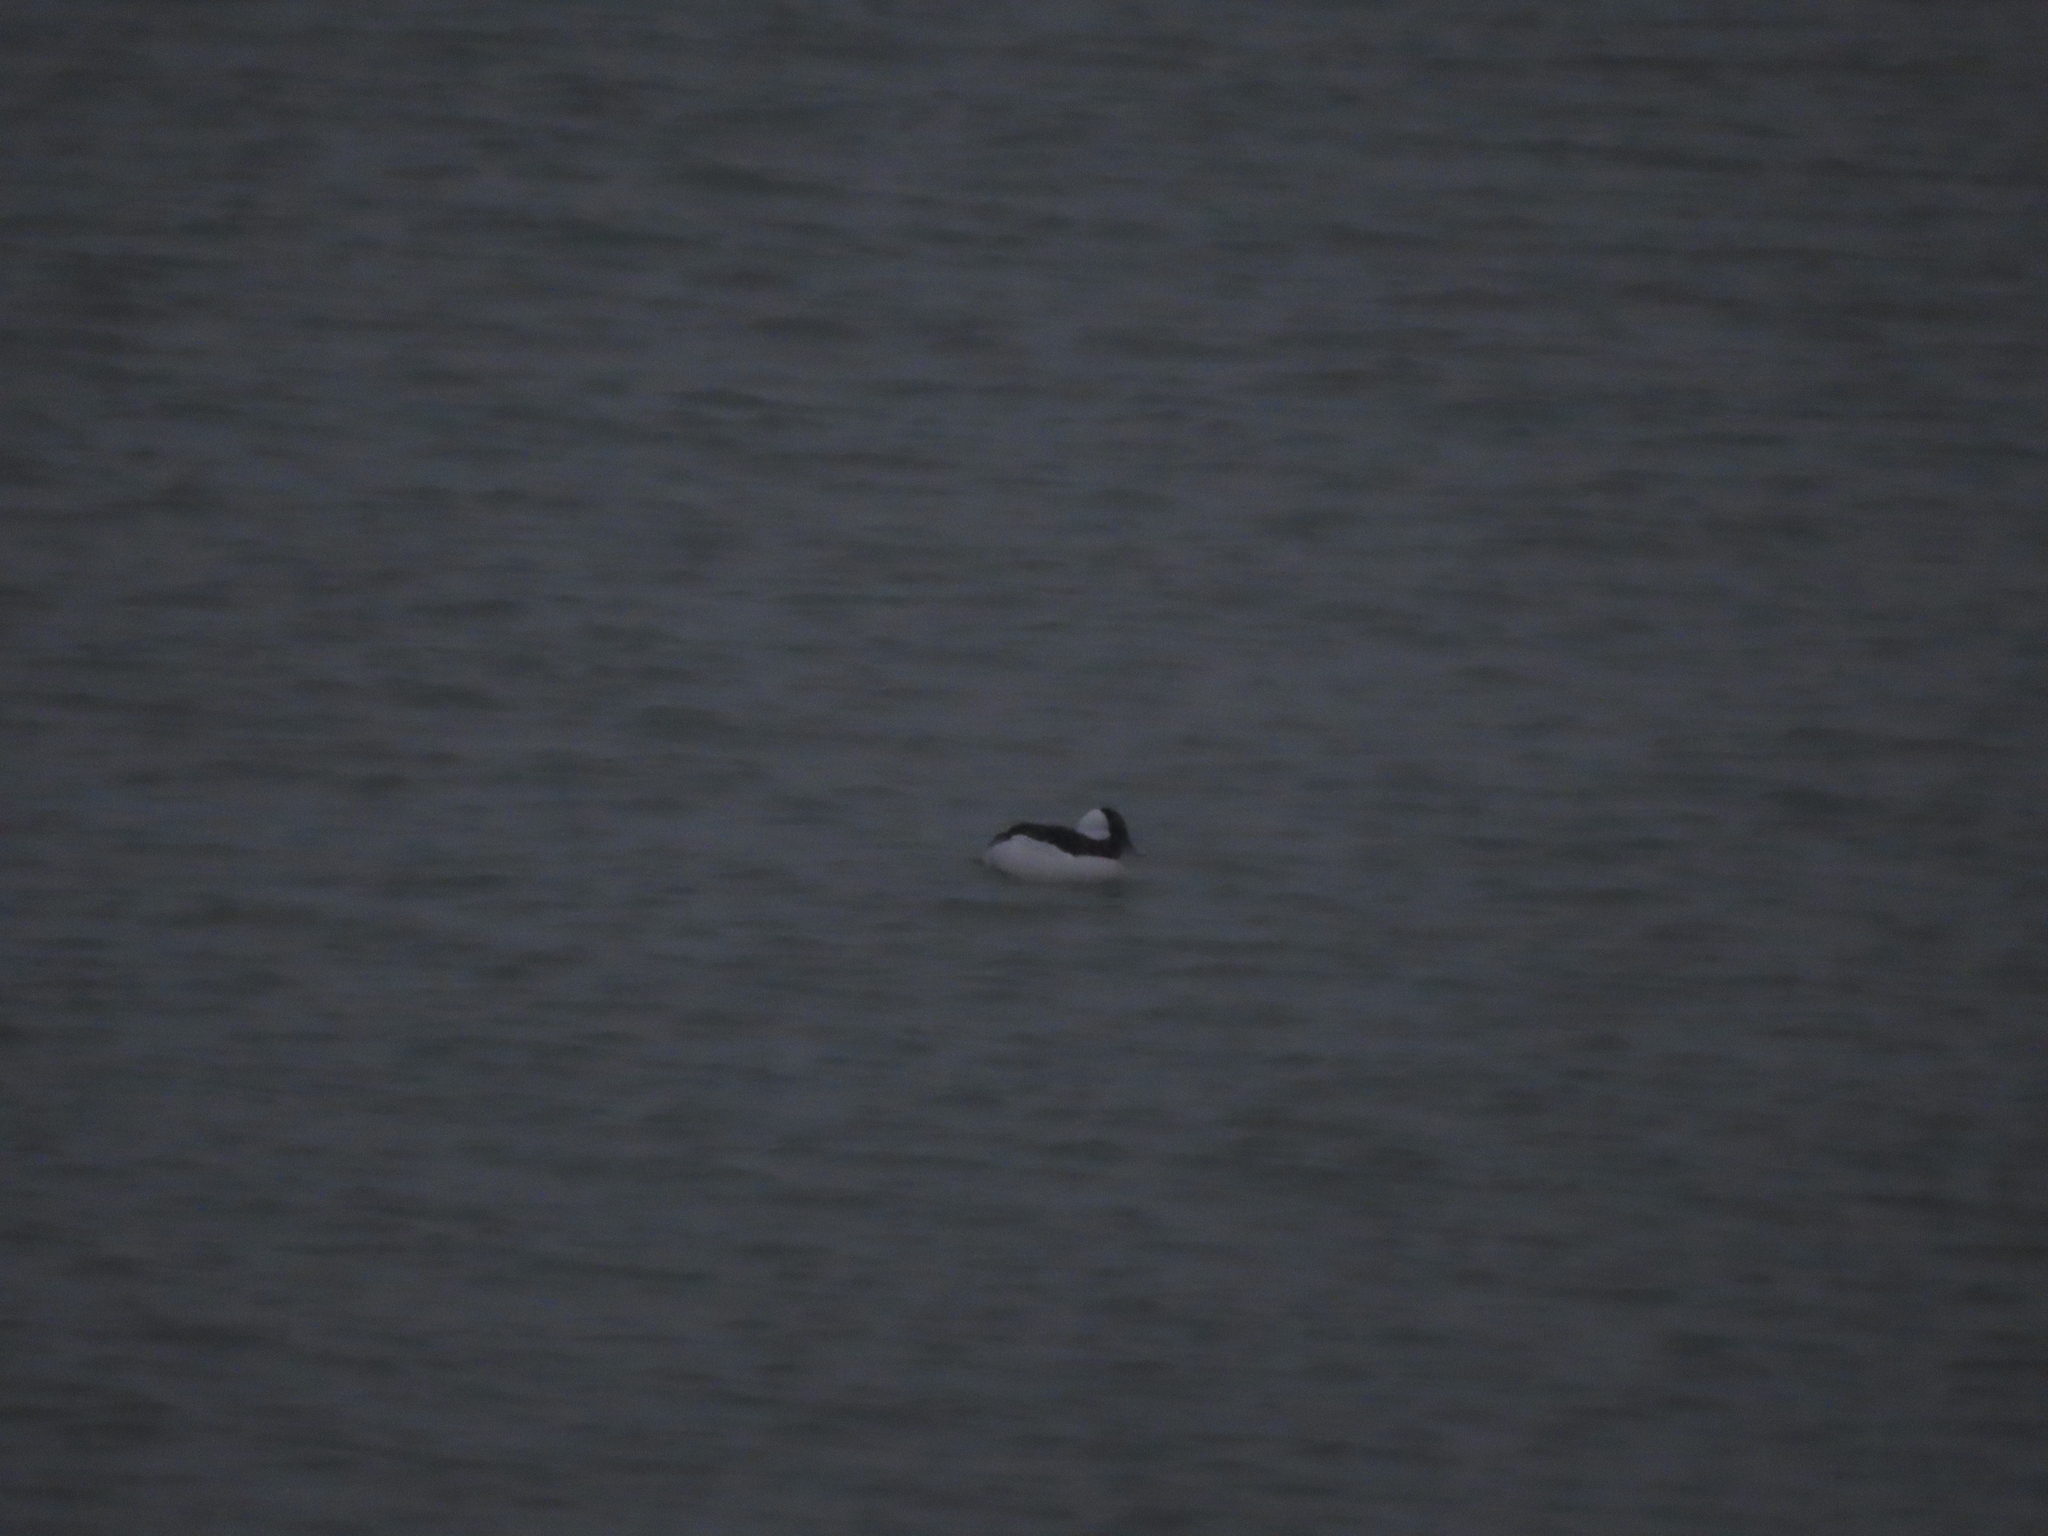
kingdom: Animalia
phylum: Chordata
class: Aves
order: Anseriformes
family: Anatidae
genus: Bucephala
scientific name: Bucephala albeola
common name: Bufflehead
